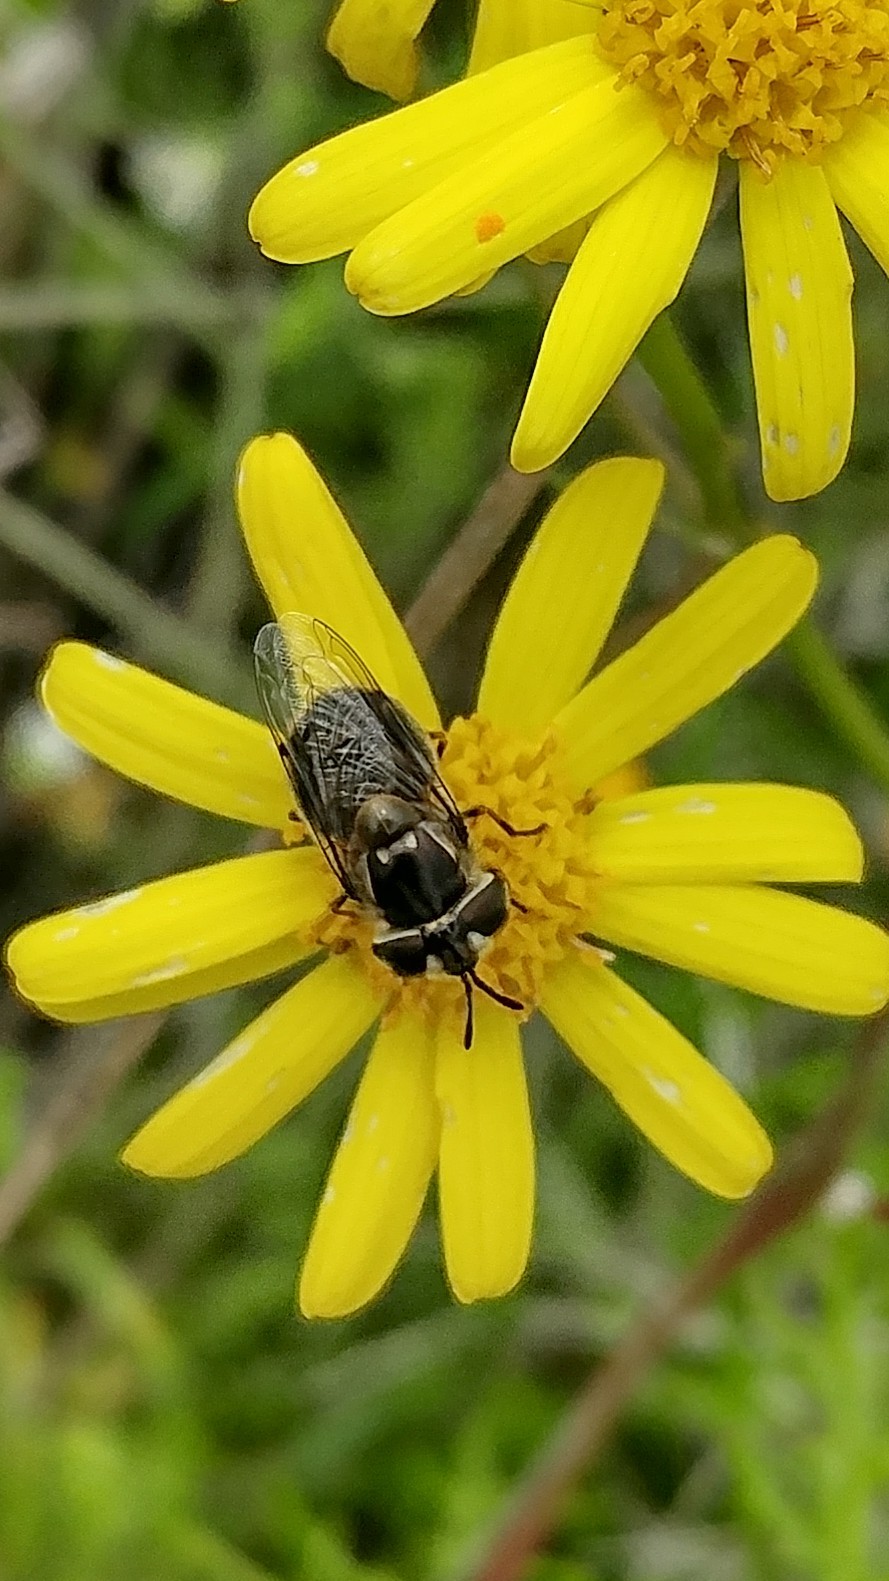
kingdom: Animalia
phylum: Arthropoda
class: Insecta
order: Diptera
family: Syrphidae
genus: Copestylum
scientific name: Copestylum lentum
